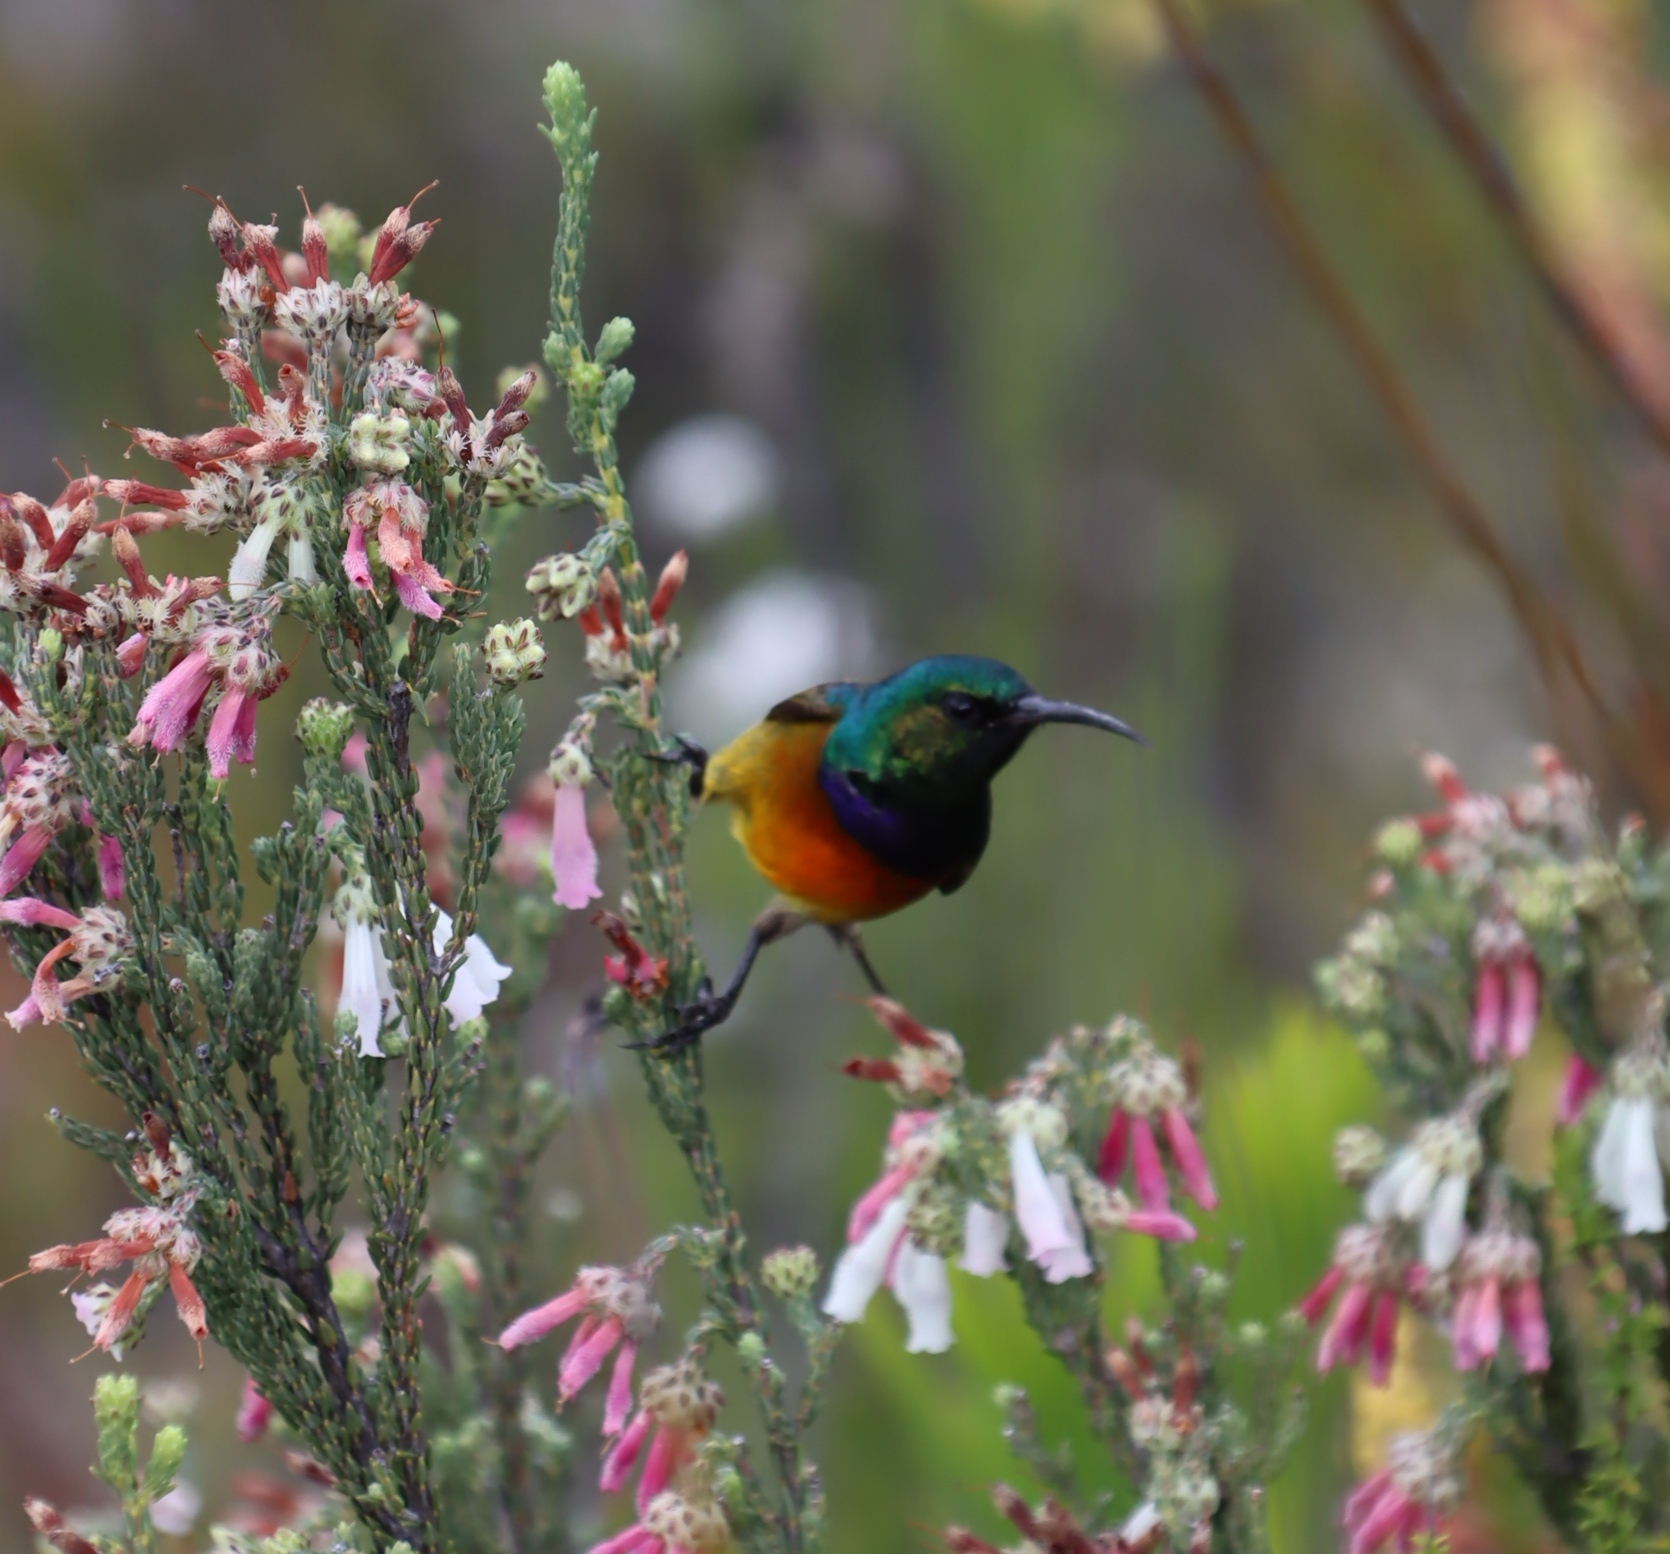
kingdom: Animalia
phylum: Chordata
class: Aves
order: Passeriformes
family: Nectariniidae
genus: Anthobaphes
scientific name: Anthobaphes violacea
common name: Orange-breasted sunbird
